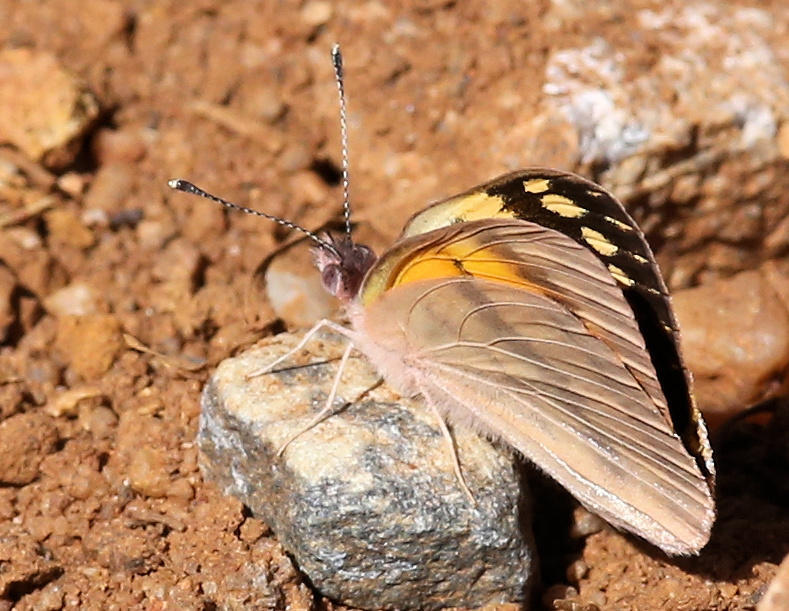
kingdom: Animalia
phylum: Arthropoda
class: Insecta
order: Lepidoptera
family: Pieridae
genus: Colotis
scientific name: Colotis vesta
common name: Veined golden arab
